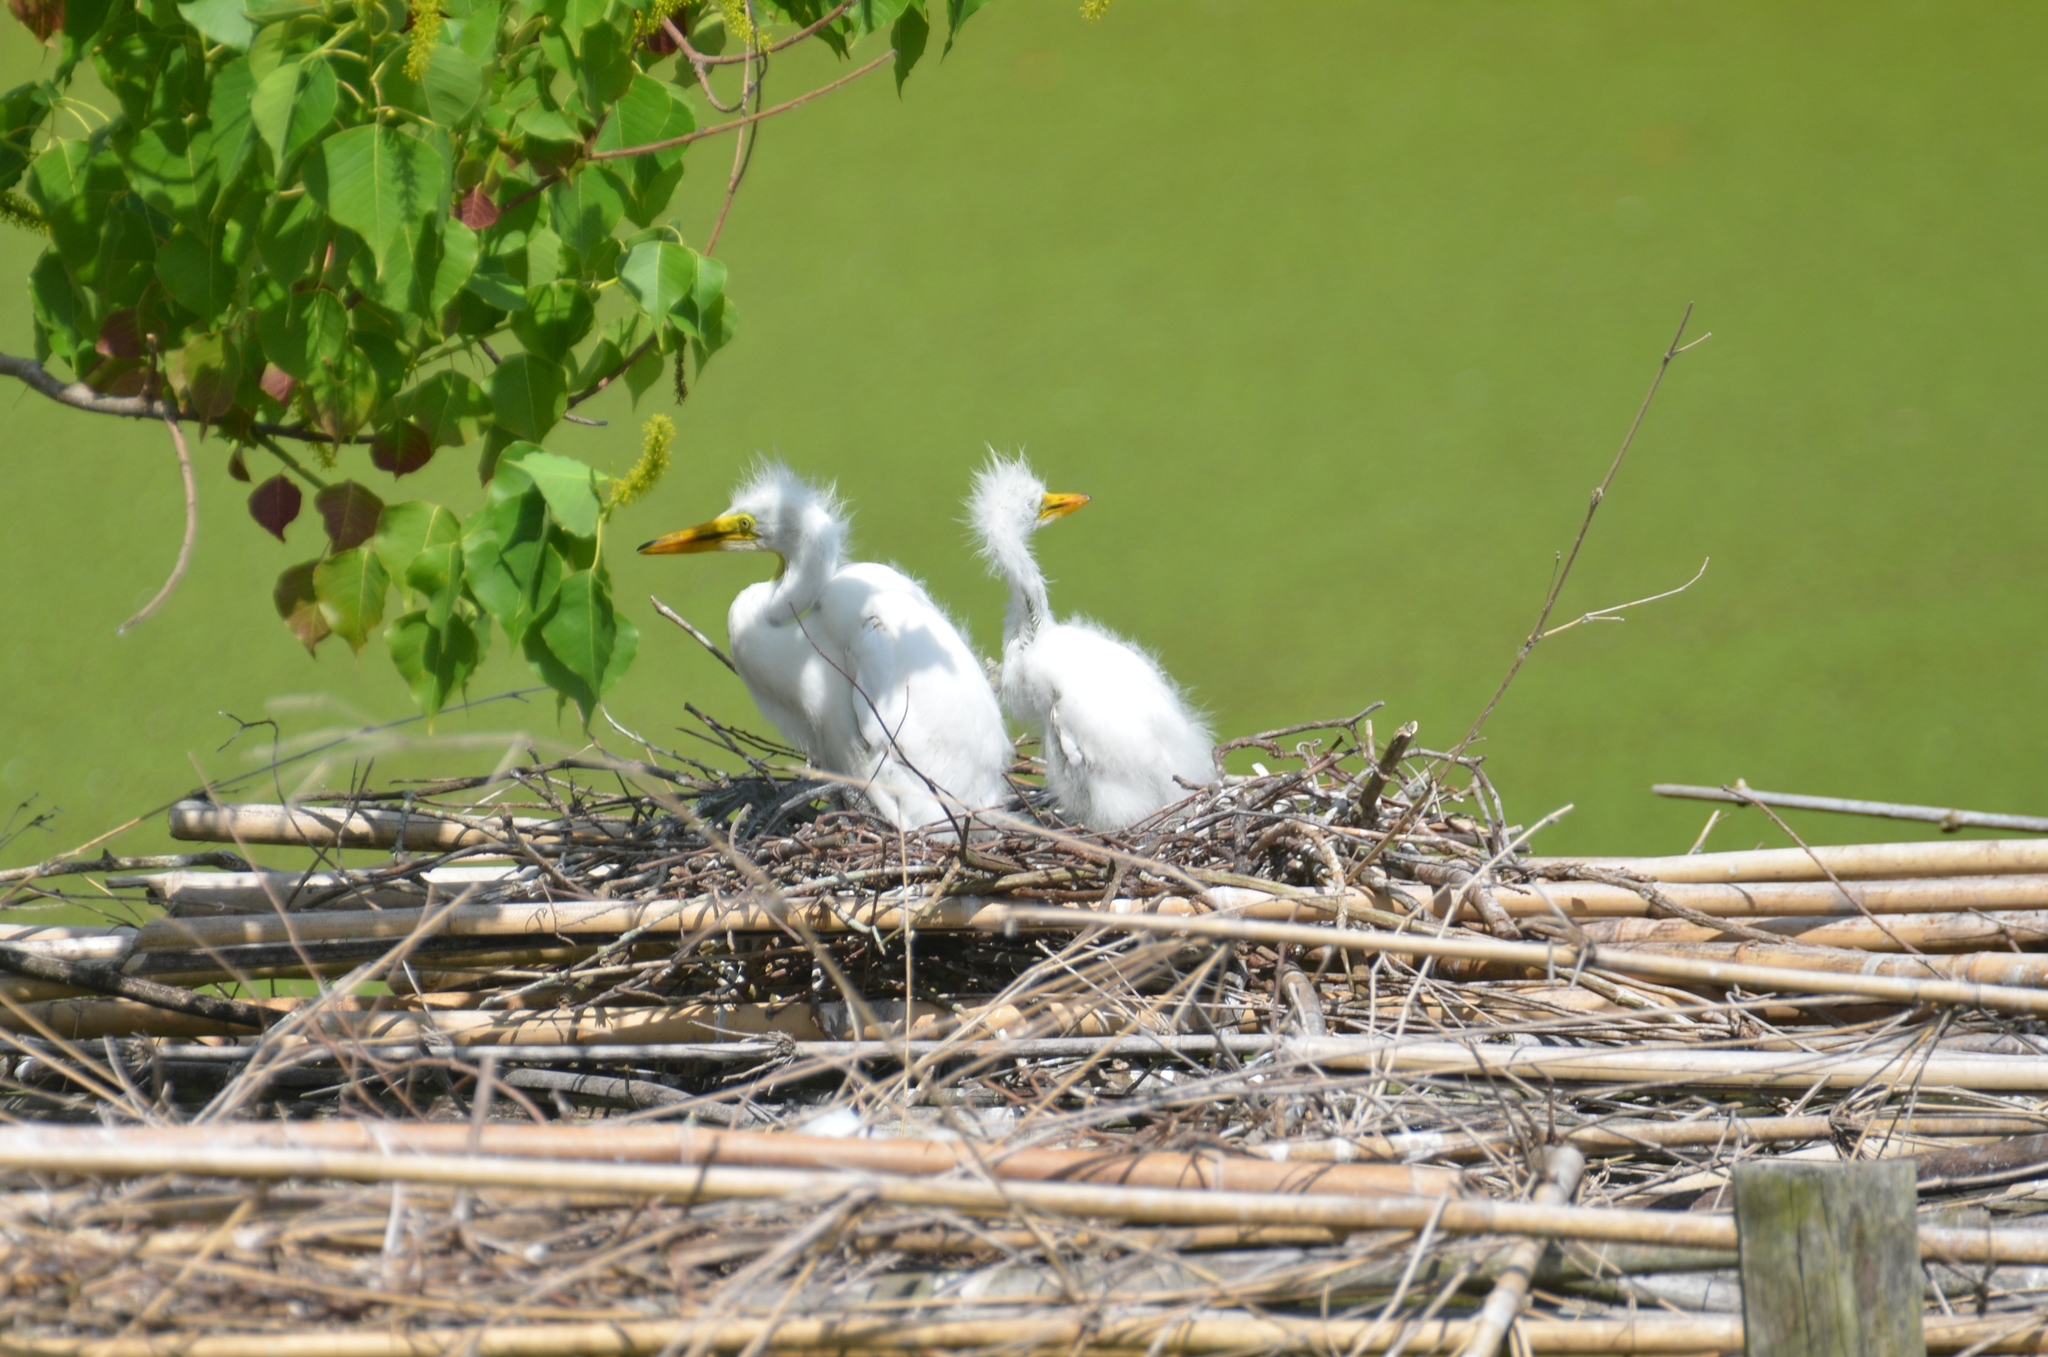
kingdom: Animalia
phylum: Chordata
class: Aves
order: Pelecaniformes
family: Ardeidae
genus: Ardea
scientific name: Ardea alba
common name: Great egret
